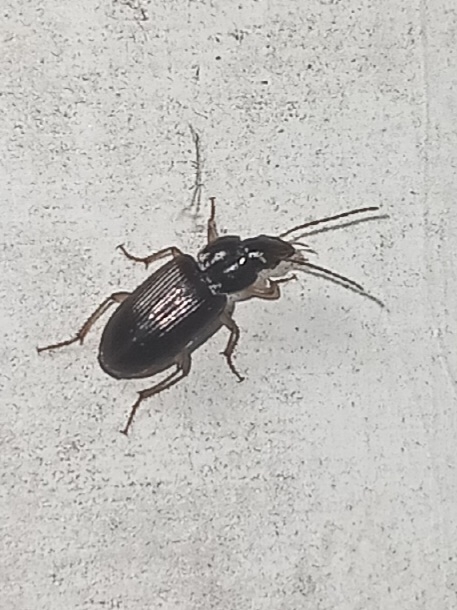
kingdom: Animalia
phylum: Arthropoda
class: Insecta
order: Coleoptera
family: Carabidae
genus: Stenolophus
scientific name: Stenolophus ochropezus
